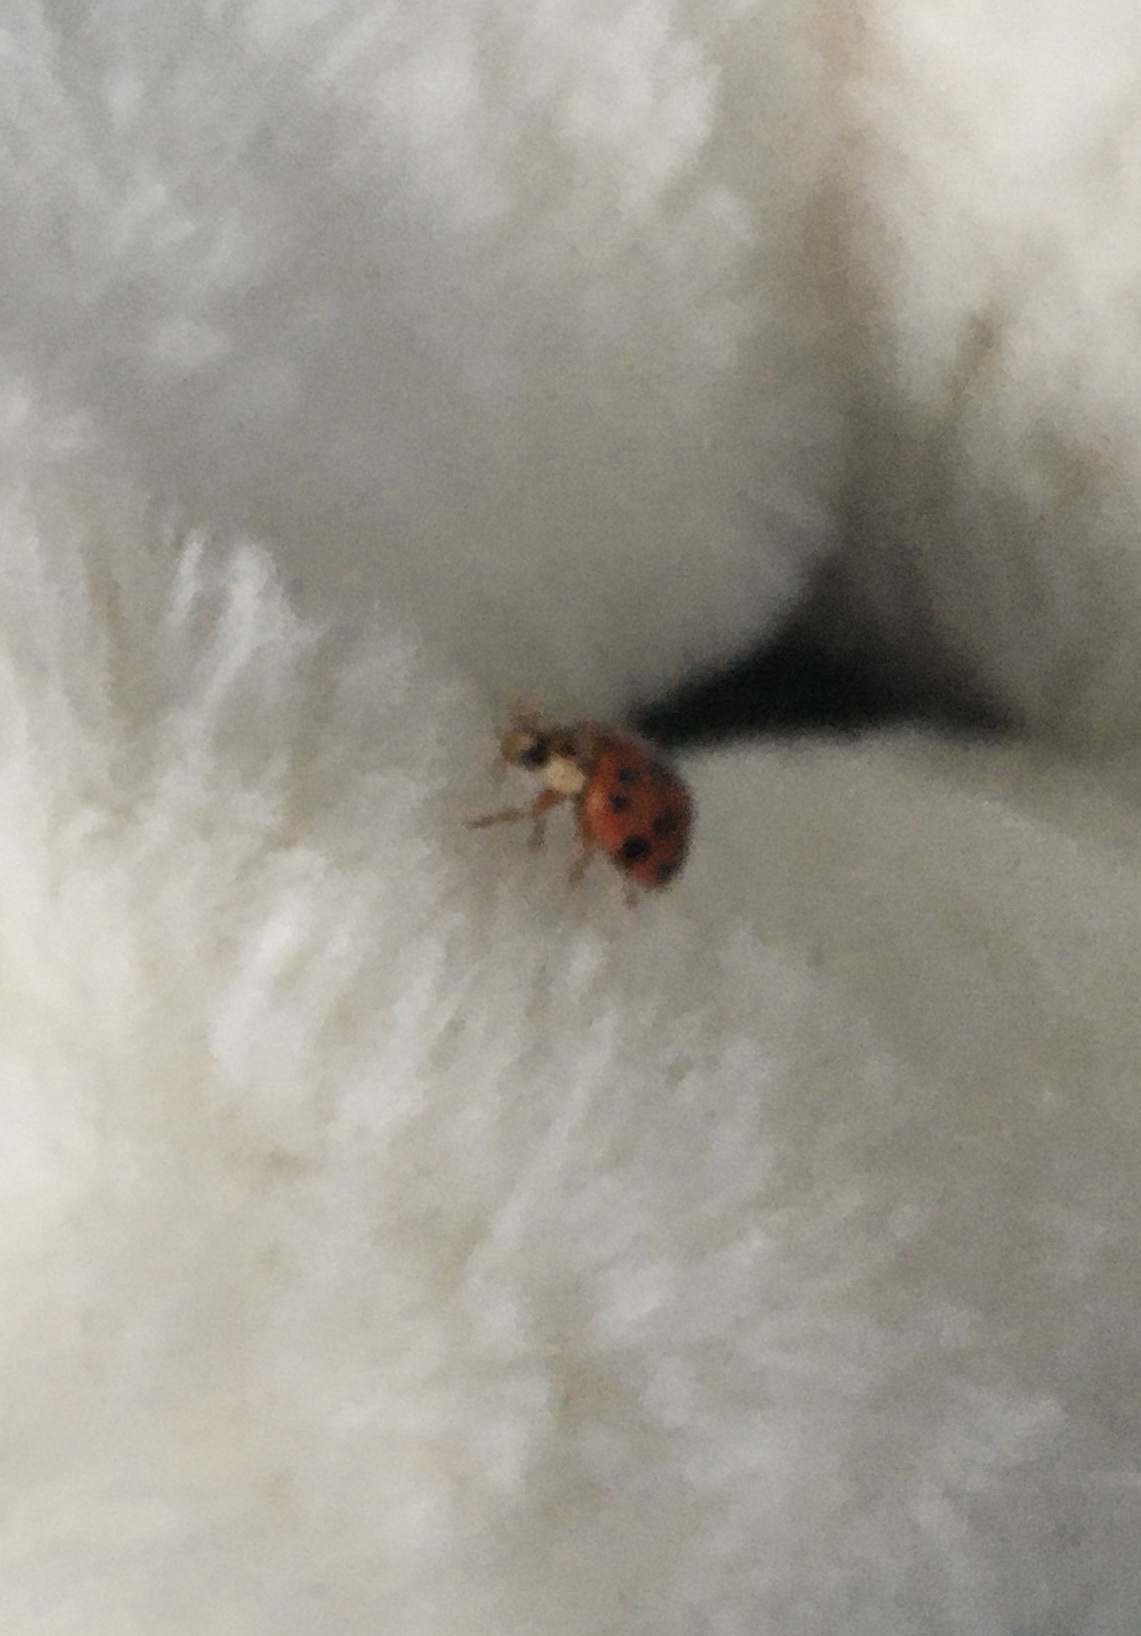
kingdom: Animalia
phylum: Arthropoda
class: Insecta
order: Coleoptera
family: Coccinellidae
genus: Harmonia
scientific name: Harmonia axyridis
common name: Harlequin ladybird
